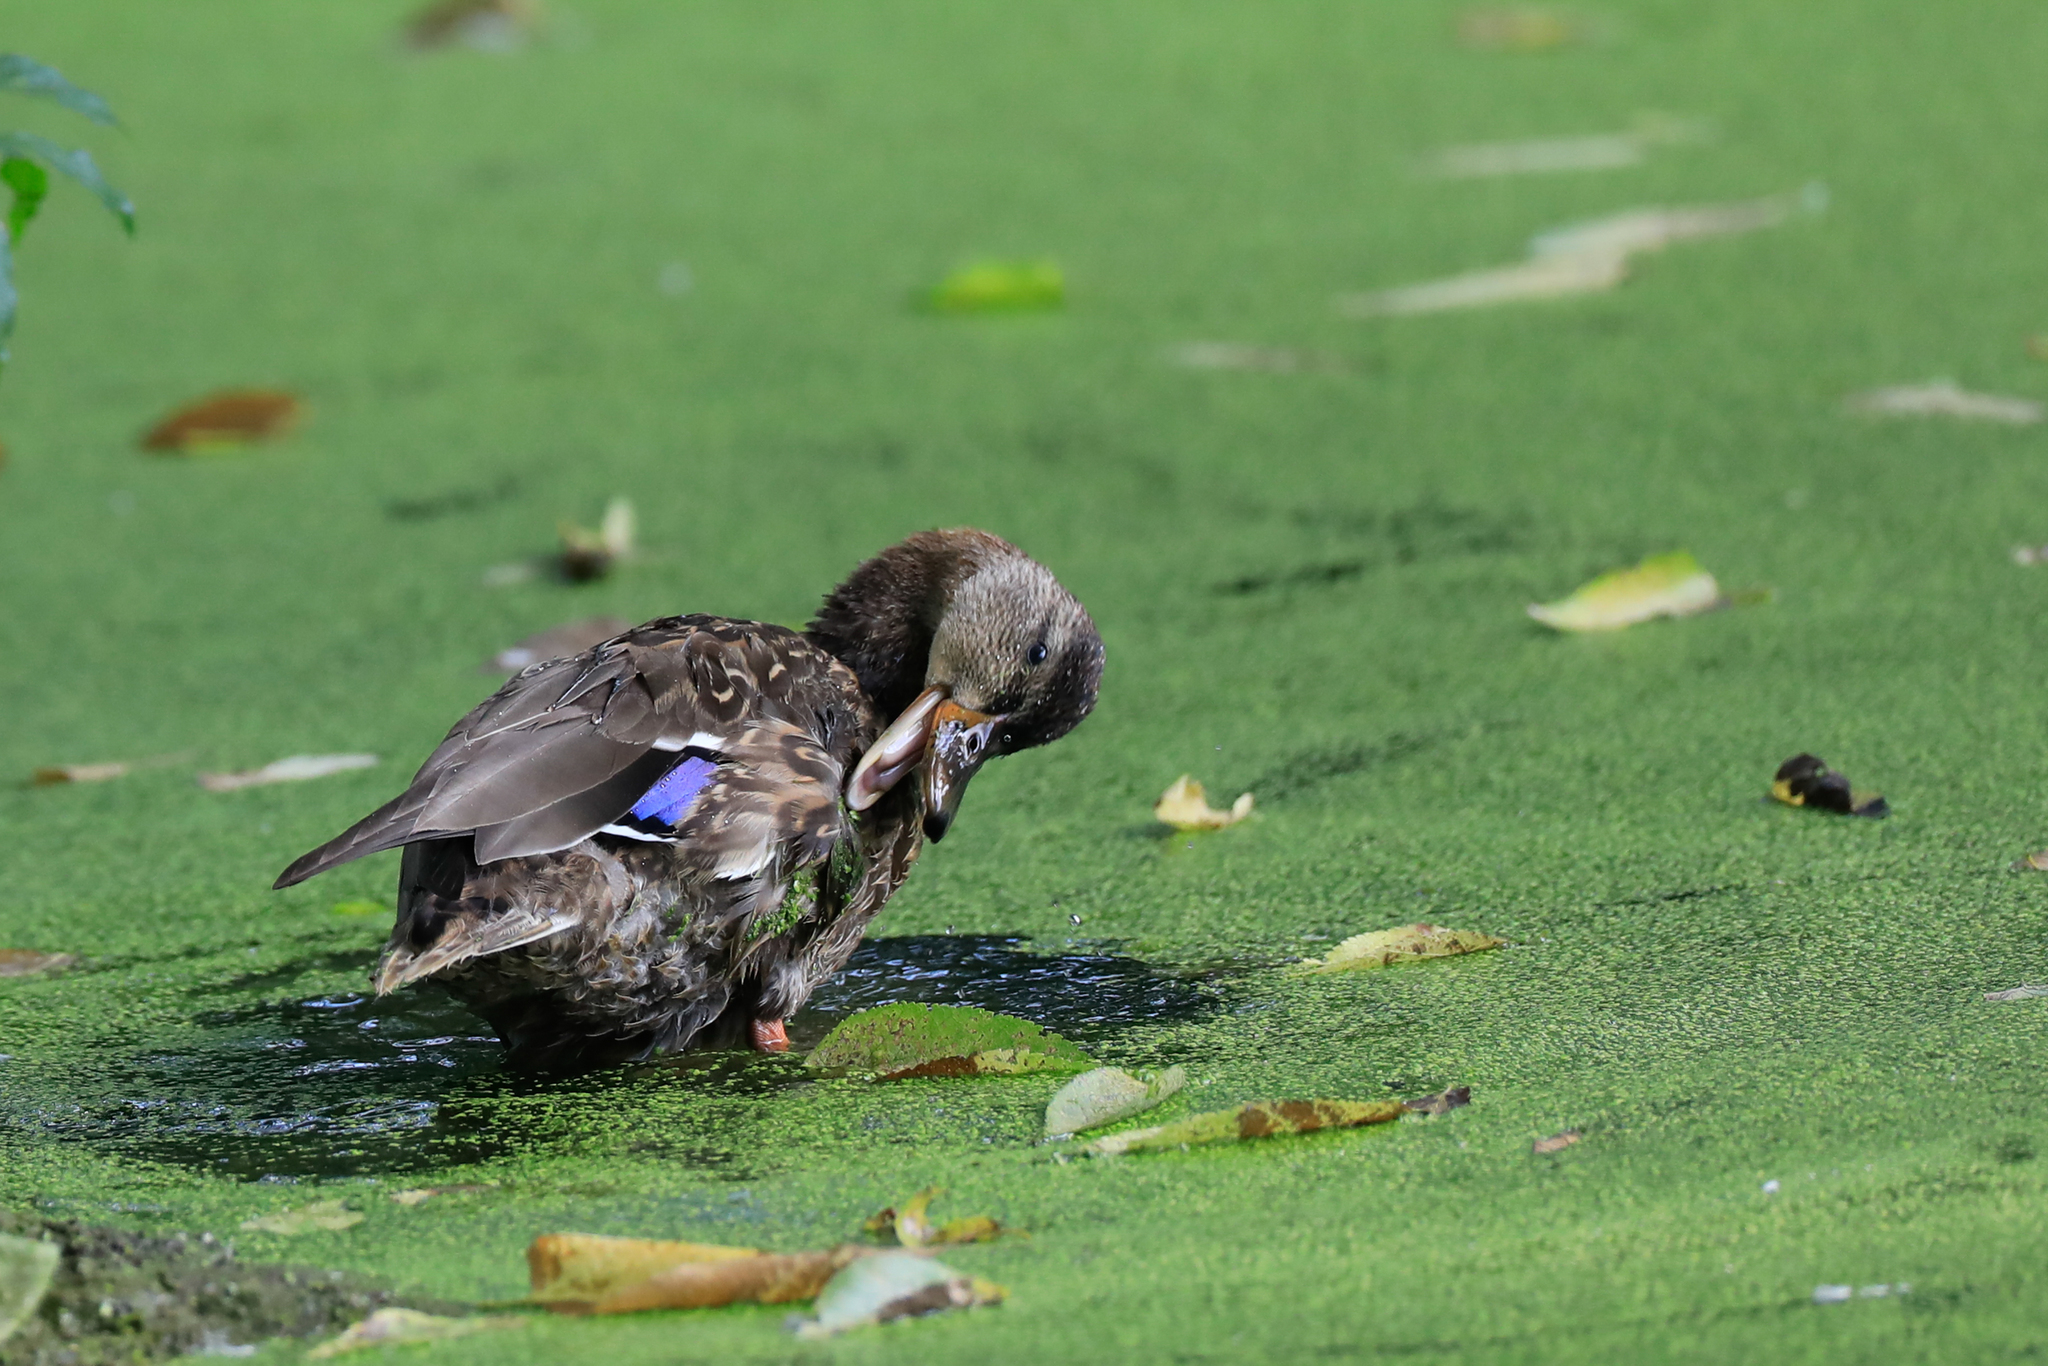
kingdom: Animalia
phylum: Chordata
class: Aves
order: Anseriformes
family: Anatidae
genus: Anas
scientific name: Anas platyrhynchos
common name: Mallard
